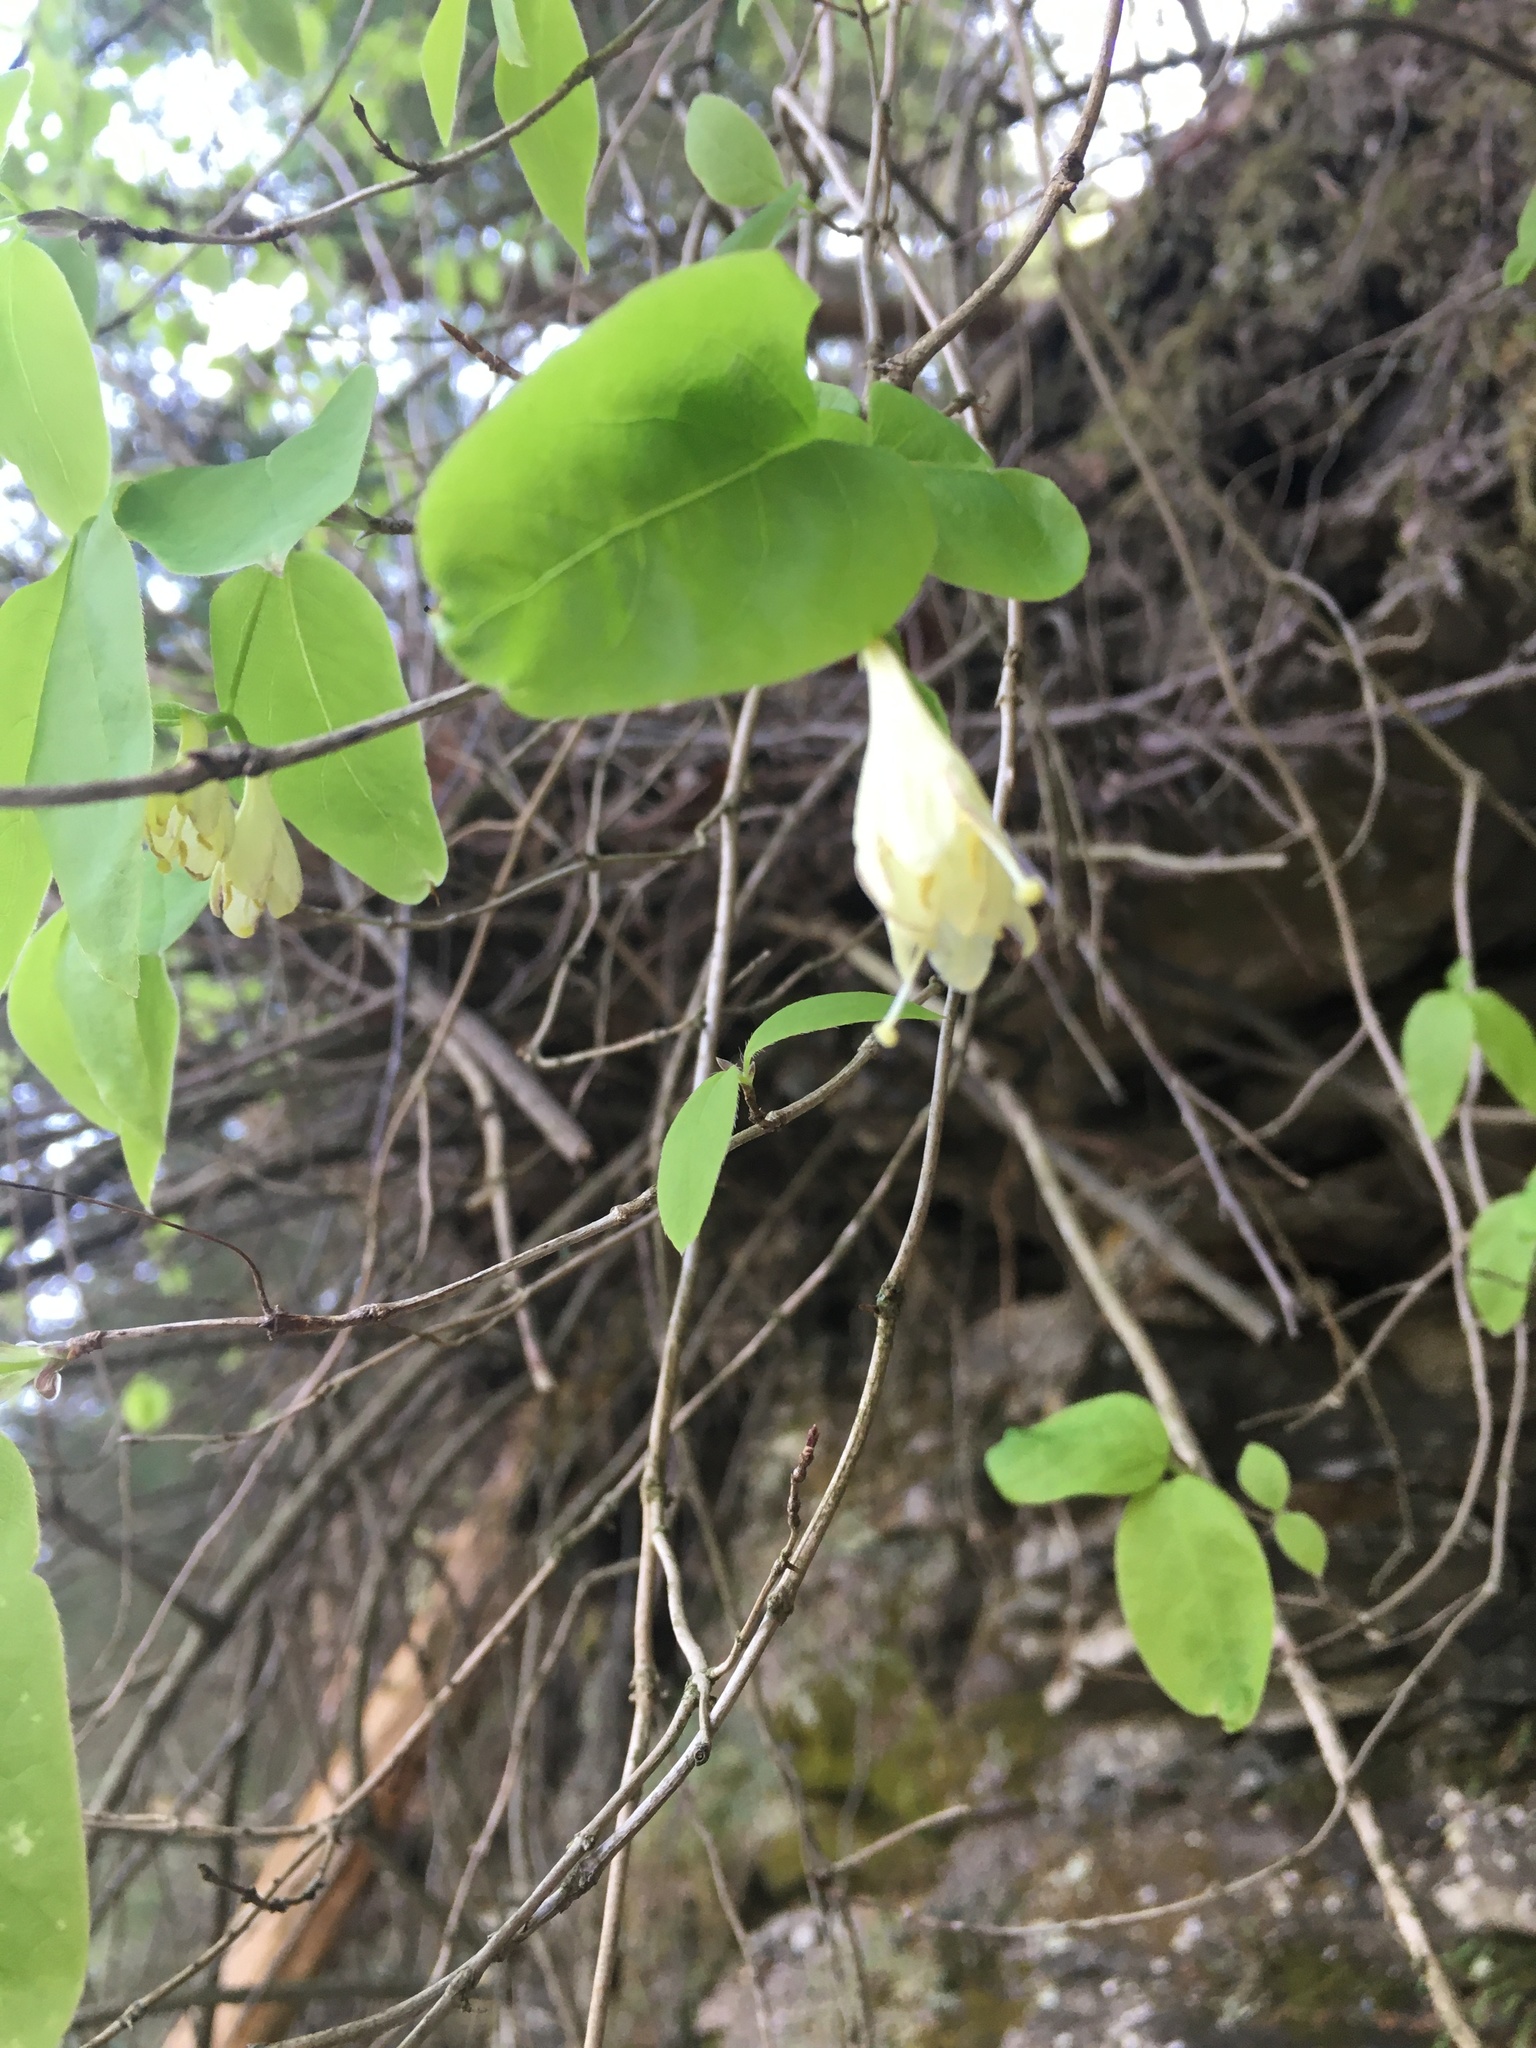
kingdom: Plantae
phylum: Tracheophyta
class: Magnoliopsida
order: Dipsacales
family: Caprifoliaceae
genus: Lonicera
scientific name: Lonicera canadensis
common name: American fly-honeysuckle
